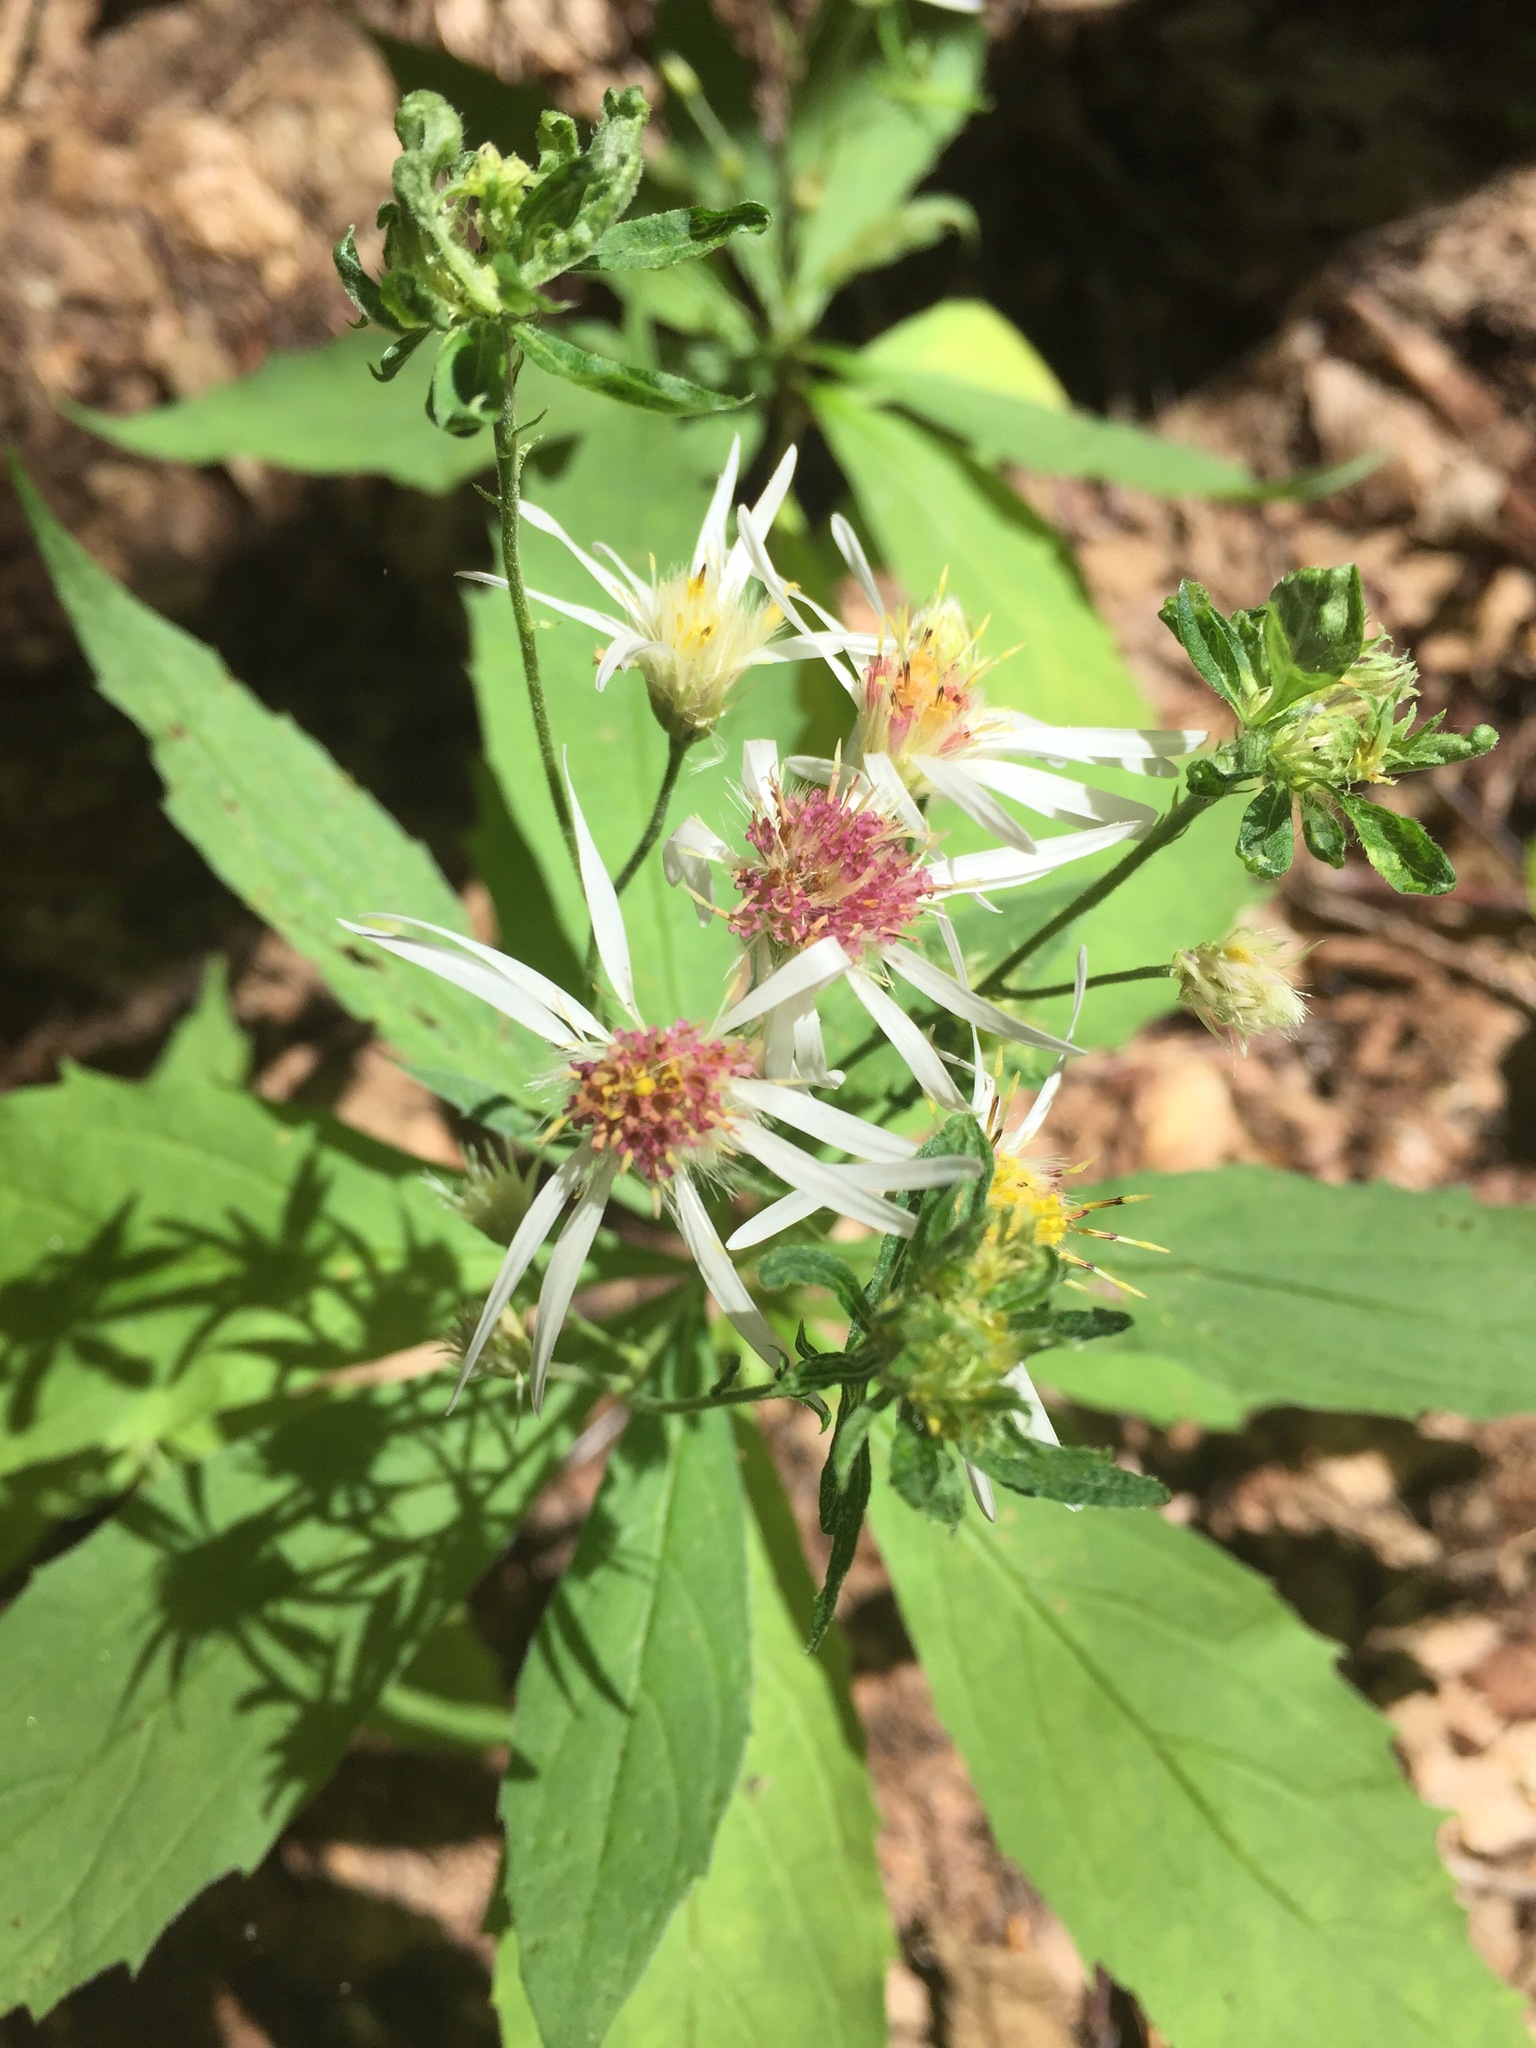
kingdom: Plantae
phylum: Tracheophyta
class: Magnoliopsida
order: Asterales
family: Asteraceae
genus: Oclemena
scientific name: Oclemena acuminata
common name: Mountain aster
